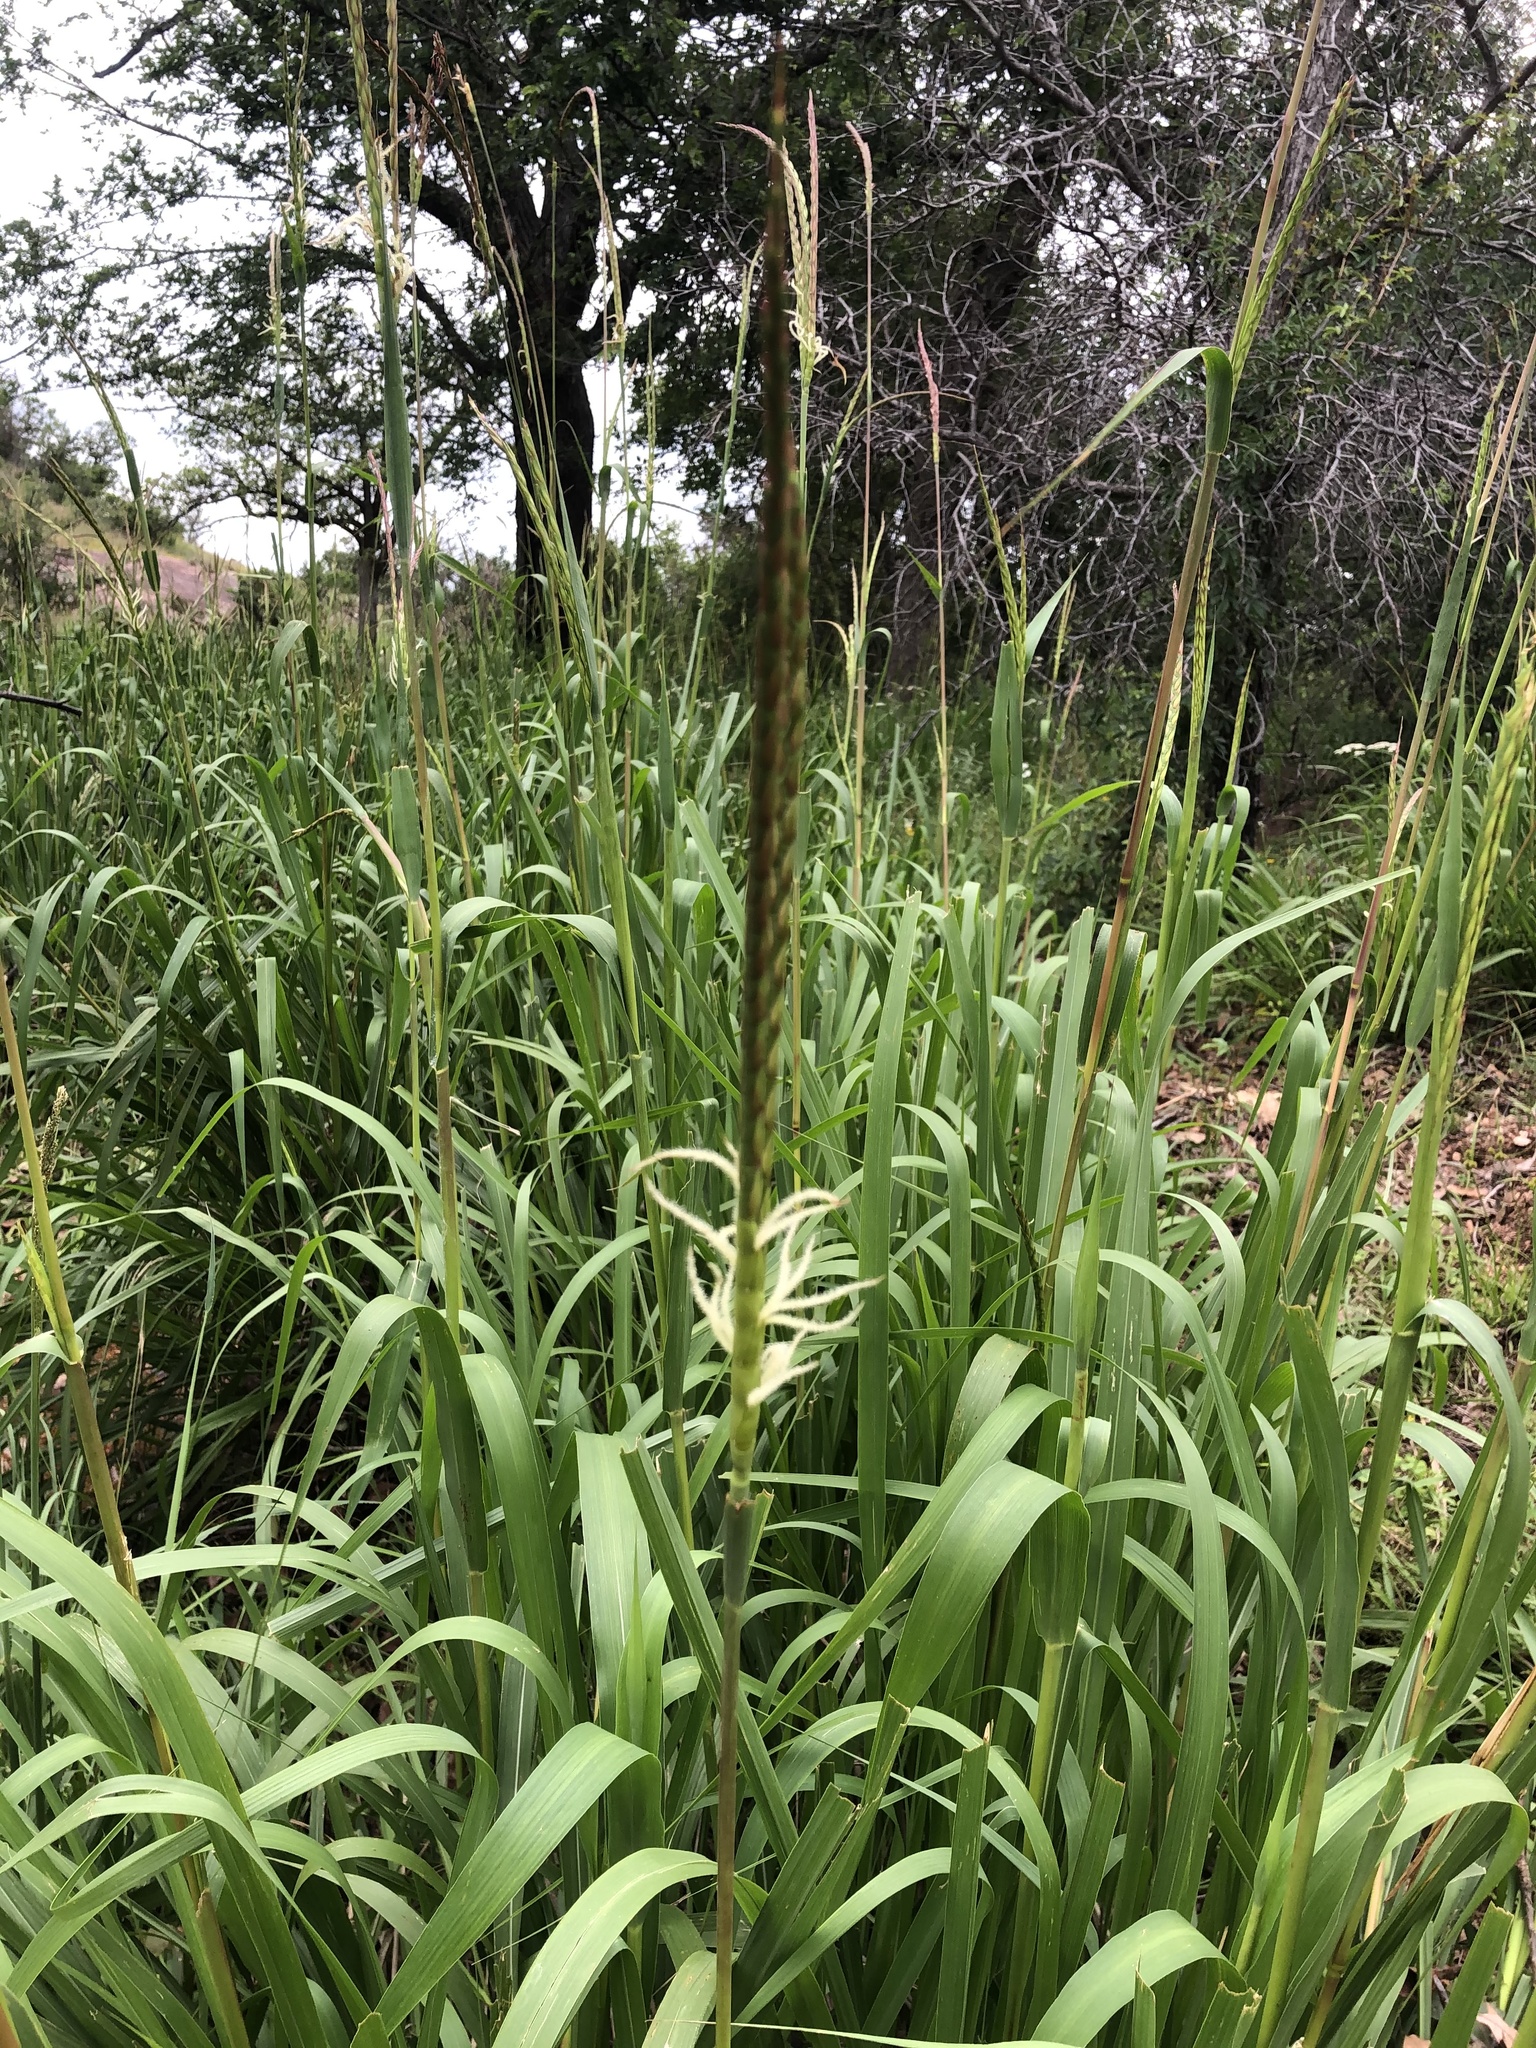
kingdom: Plantae
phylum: Tracheophyta
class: Liliopsida
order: Poales
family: Poaceae
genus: Tripsacum
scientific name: Tripsacum dactyloides
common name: Buffalo-grass
